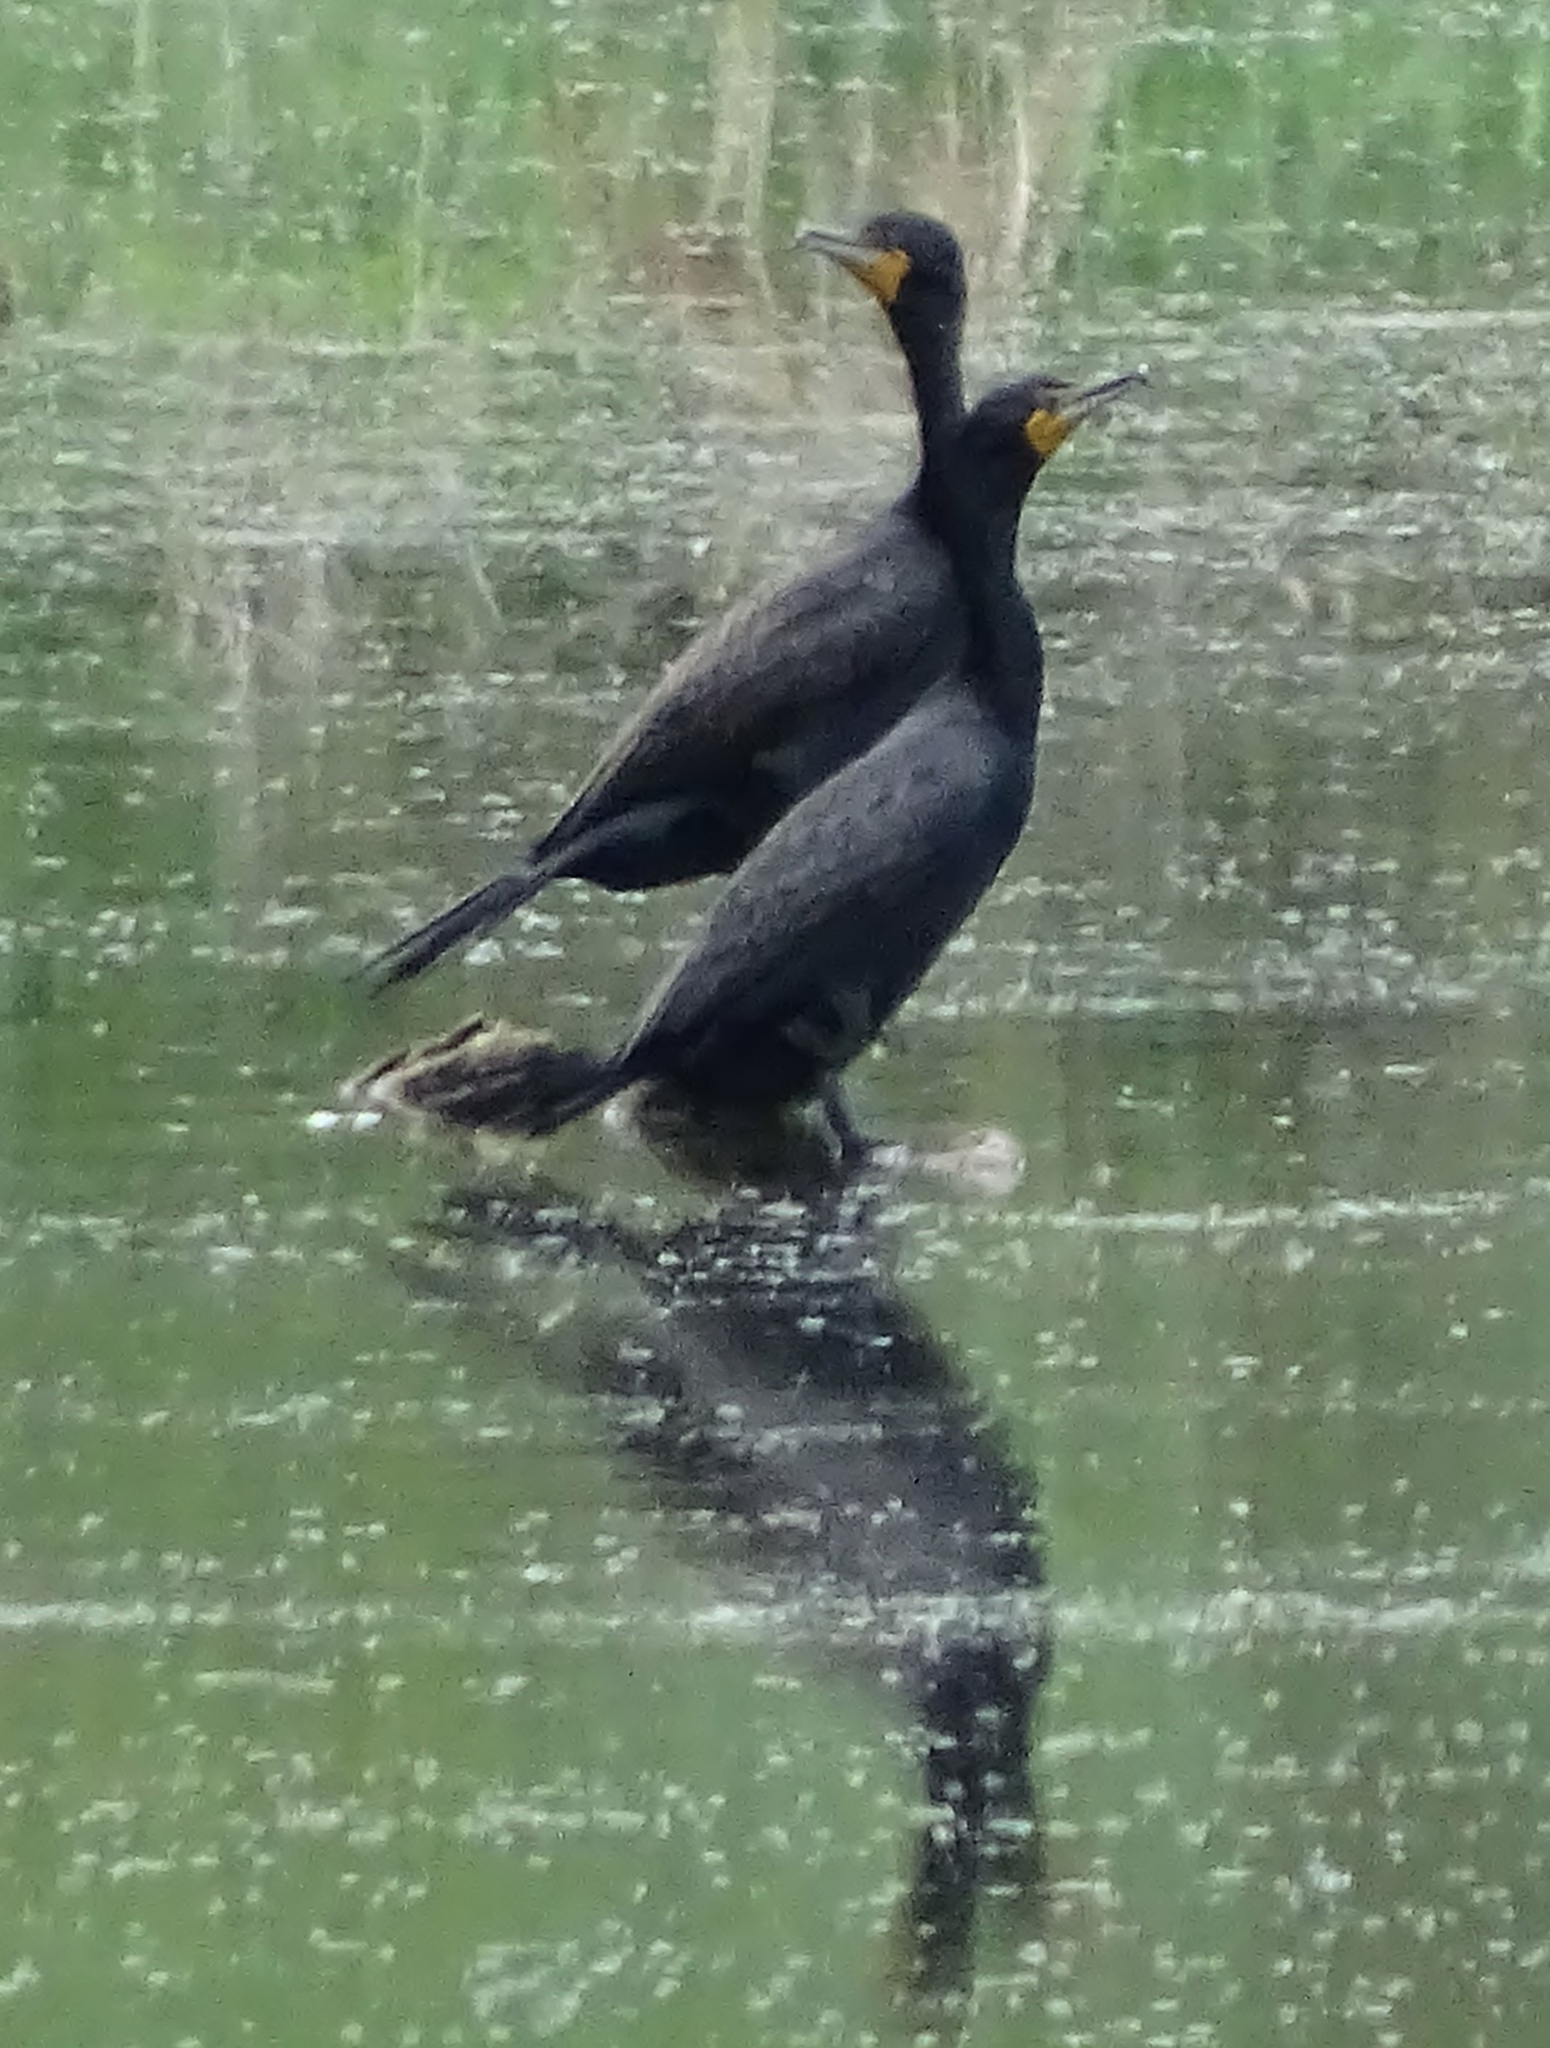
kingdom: Animalia
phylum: Chordata
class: Aves
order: Suliformes
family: Phalacrocoracidae
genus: Phalacrocorax
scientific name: Phalacrocorax auritus
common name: Double-crested cormorant
